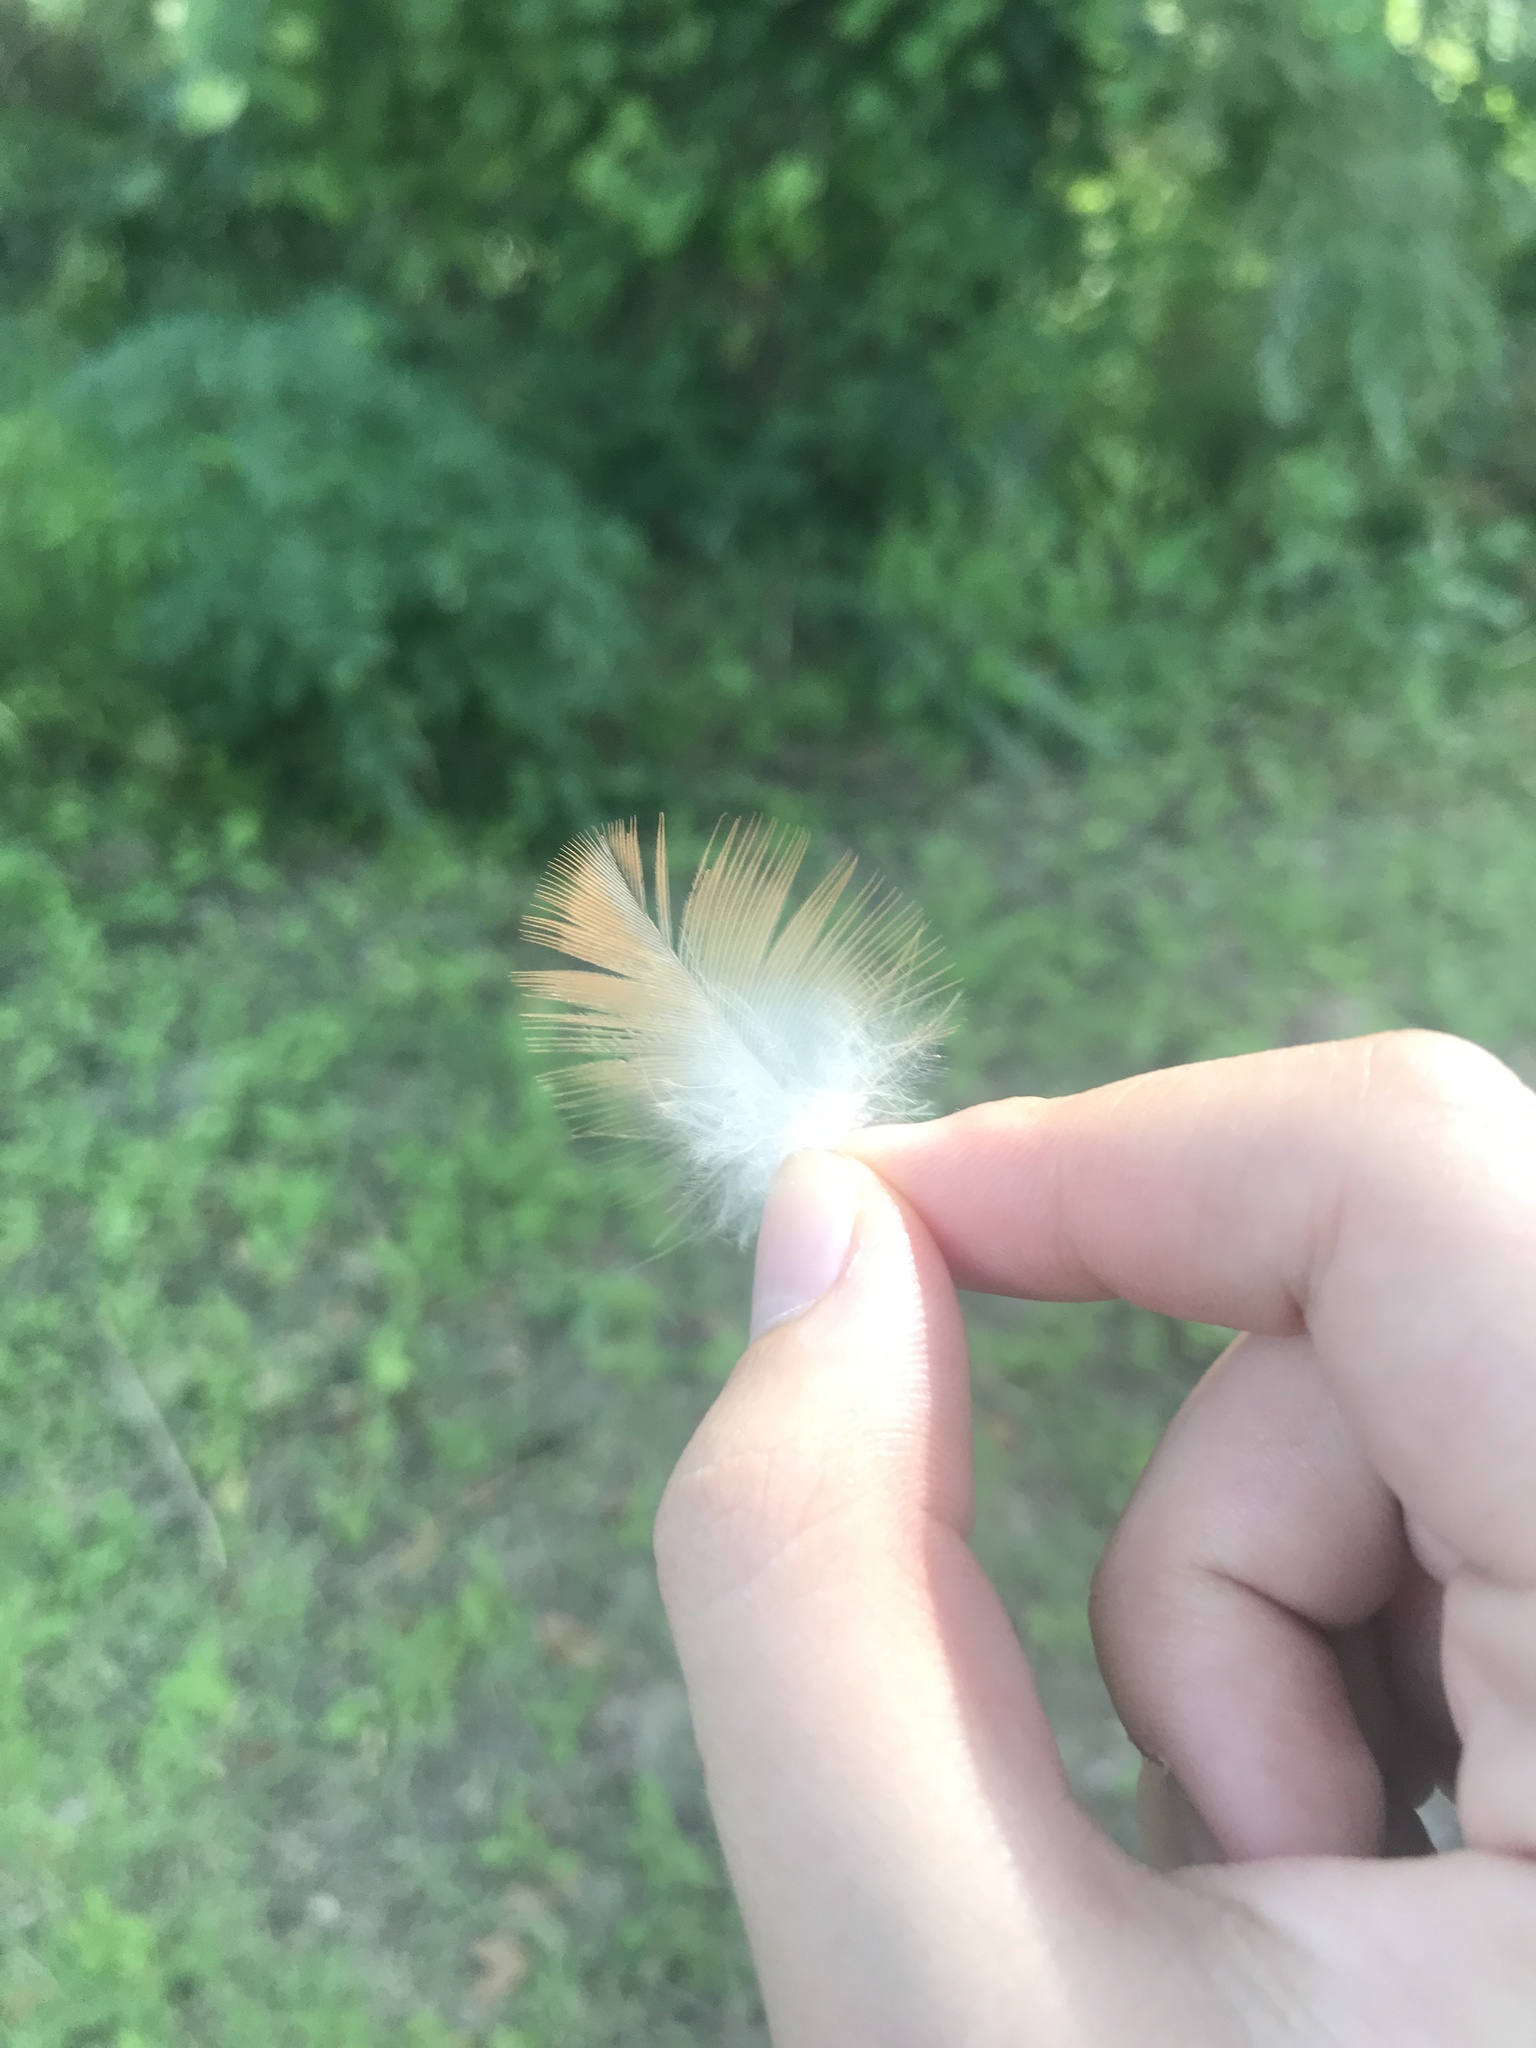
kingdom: Animalia
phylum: Chordata
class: Aves
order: Accipitriformes
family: Accipitridae
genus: Buteo
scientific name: Buteo lineatus
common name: Red-shouldered hawk
